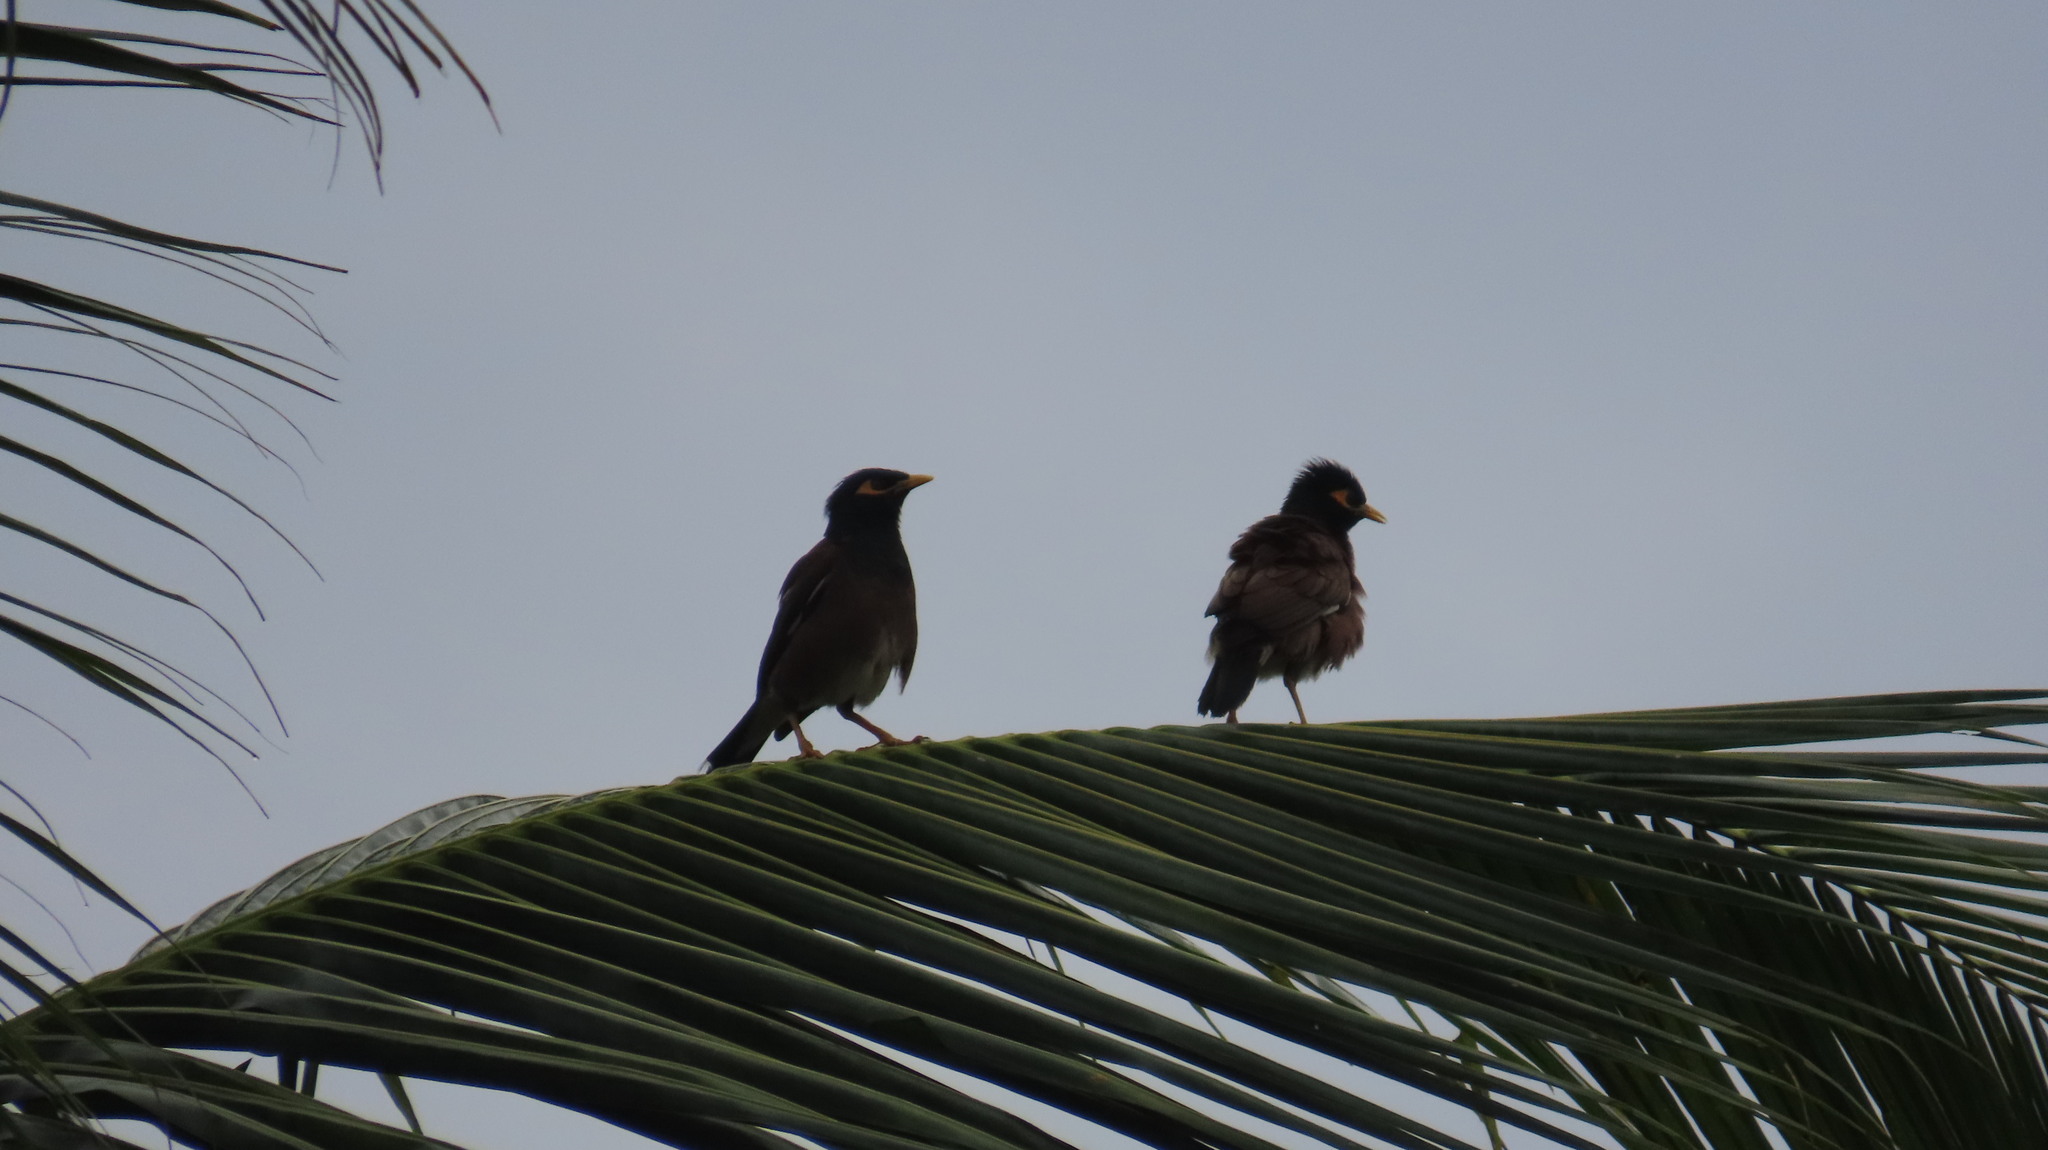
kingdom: Animalia
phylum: Chordata
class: Aves
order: Passeriformes
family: Sturnidae
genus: Acridotheres
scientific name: Acridotheres tristis
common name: Common myna
